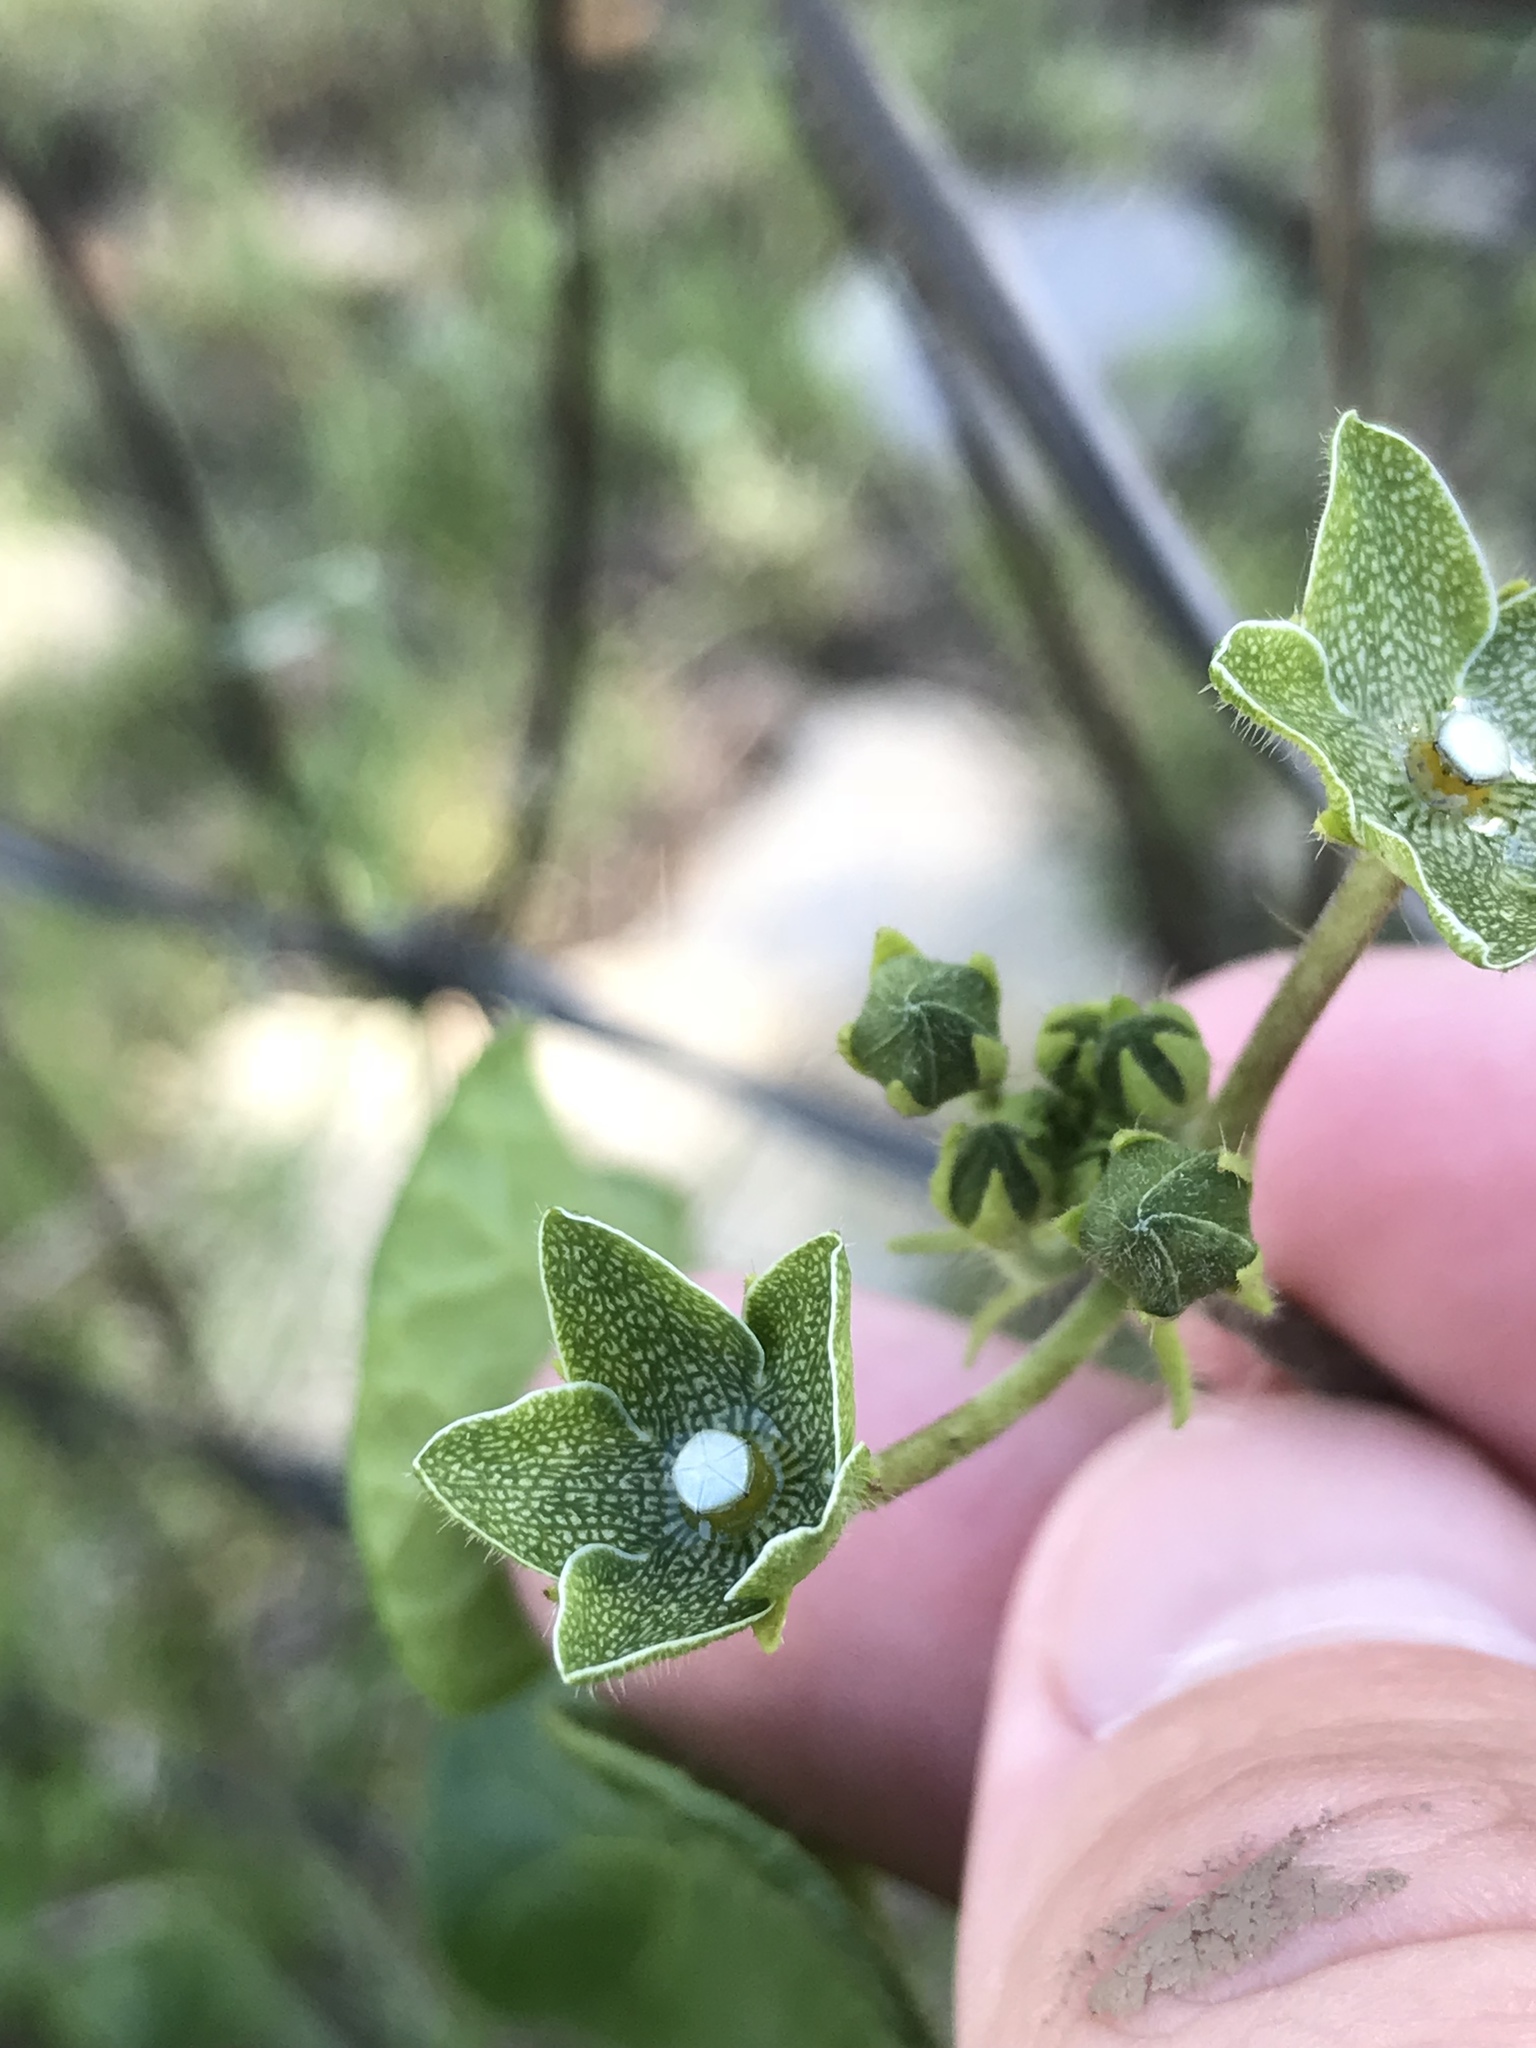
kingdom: Plantae
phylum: Tracheophyta
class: Magnoliopsida
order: Gentianales
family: Apocynaceae
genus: Dictyanthus
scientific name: Dictyanthus reticulatus
